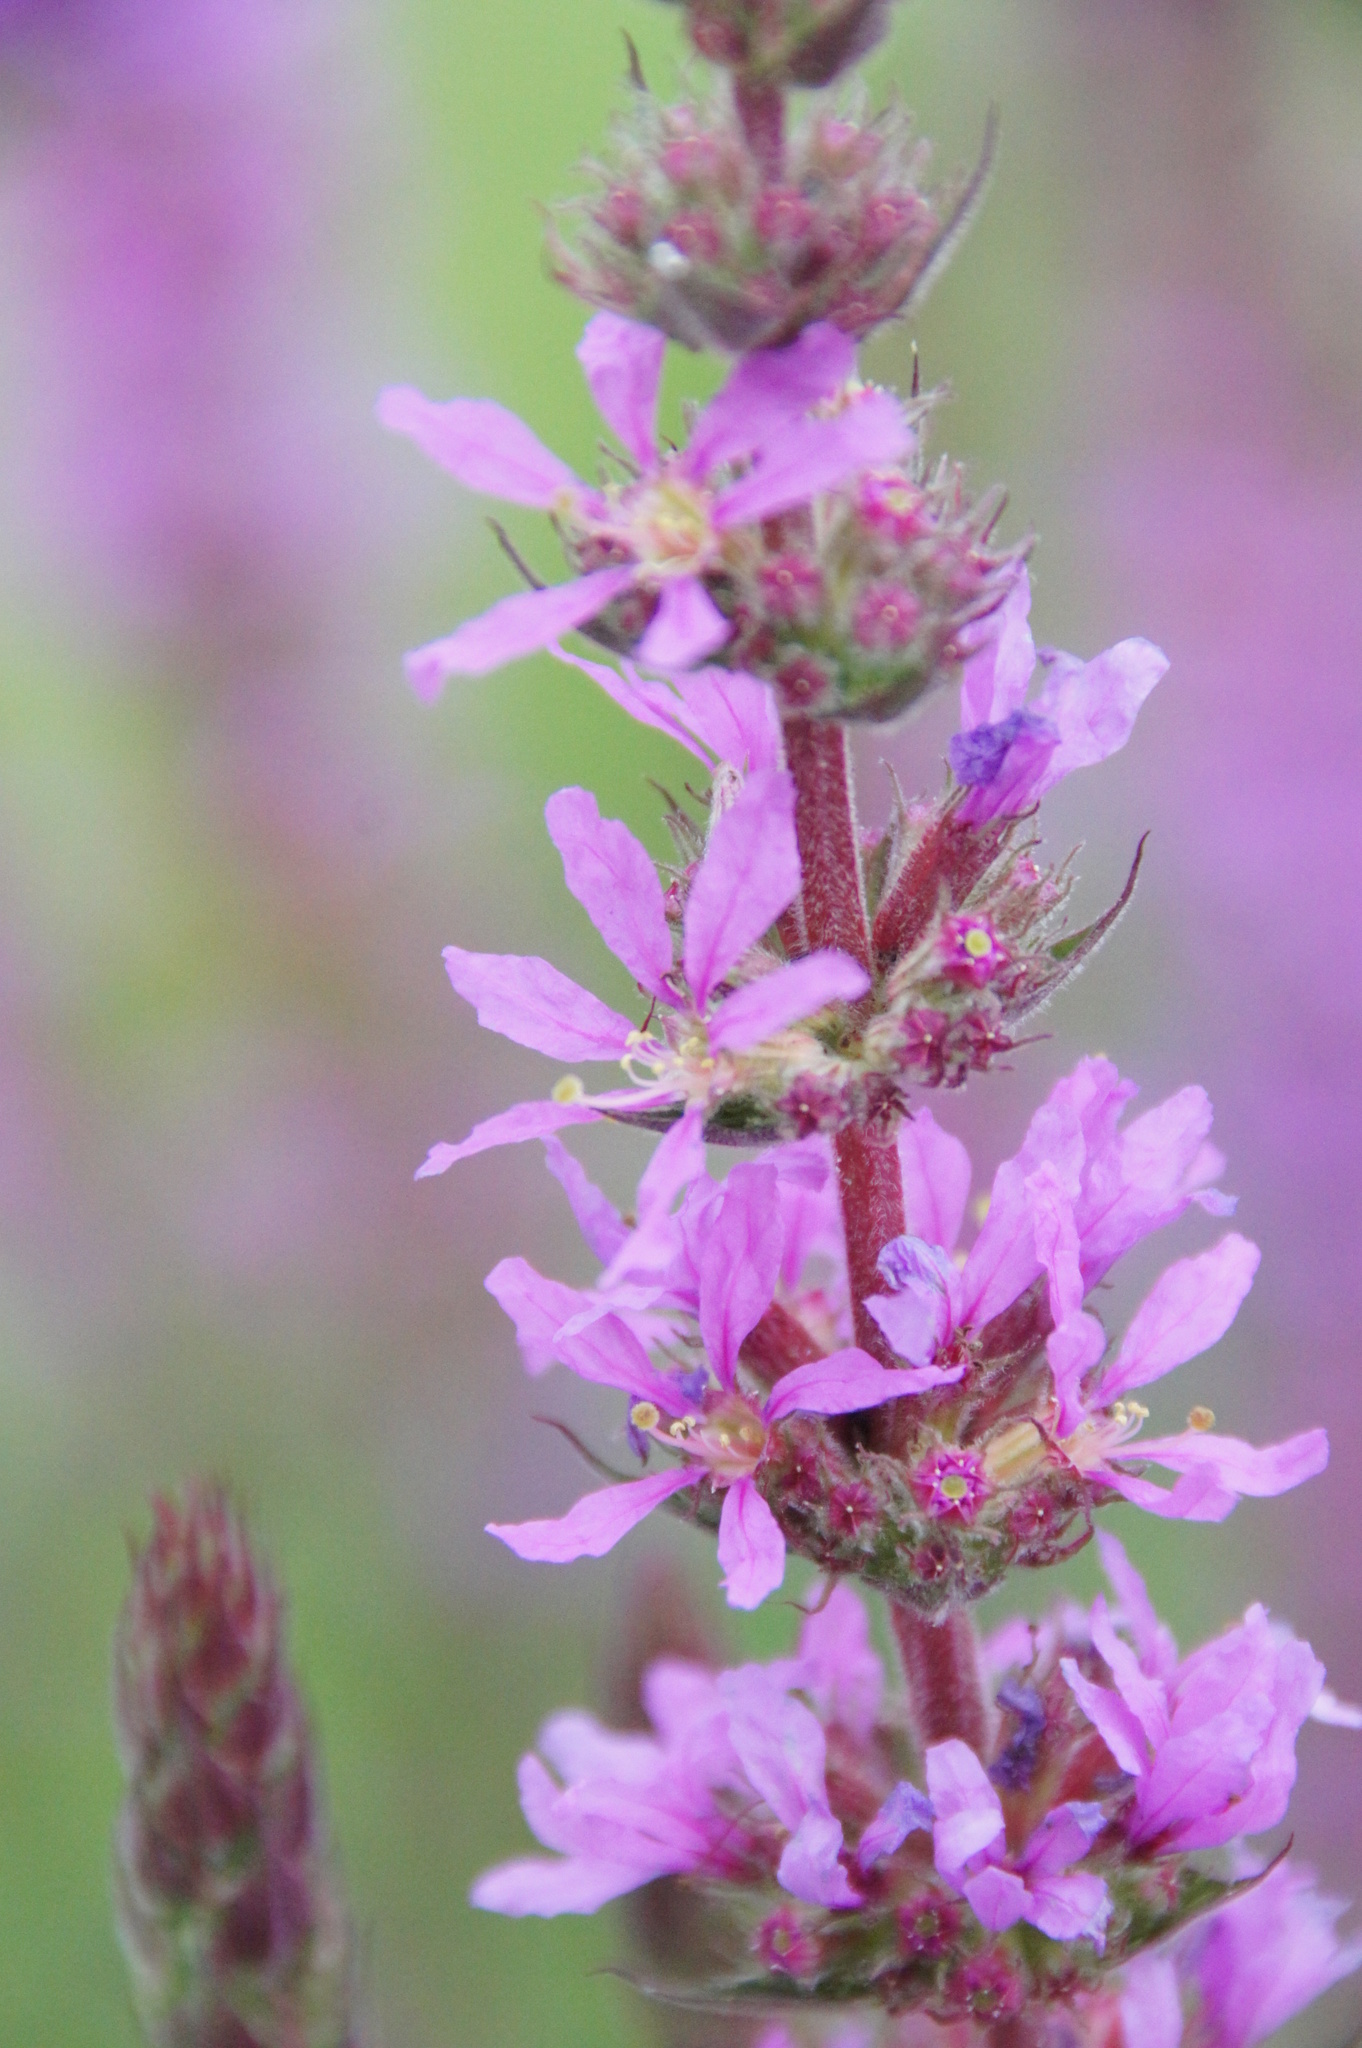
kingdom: Plantae
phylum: Tracheophyta
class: Magnoliopsida
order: Myrtales
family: Lythraceae
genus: Lythrum
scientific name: Lythrum salicaria
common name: Purple loosestrife
